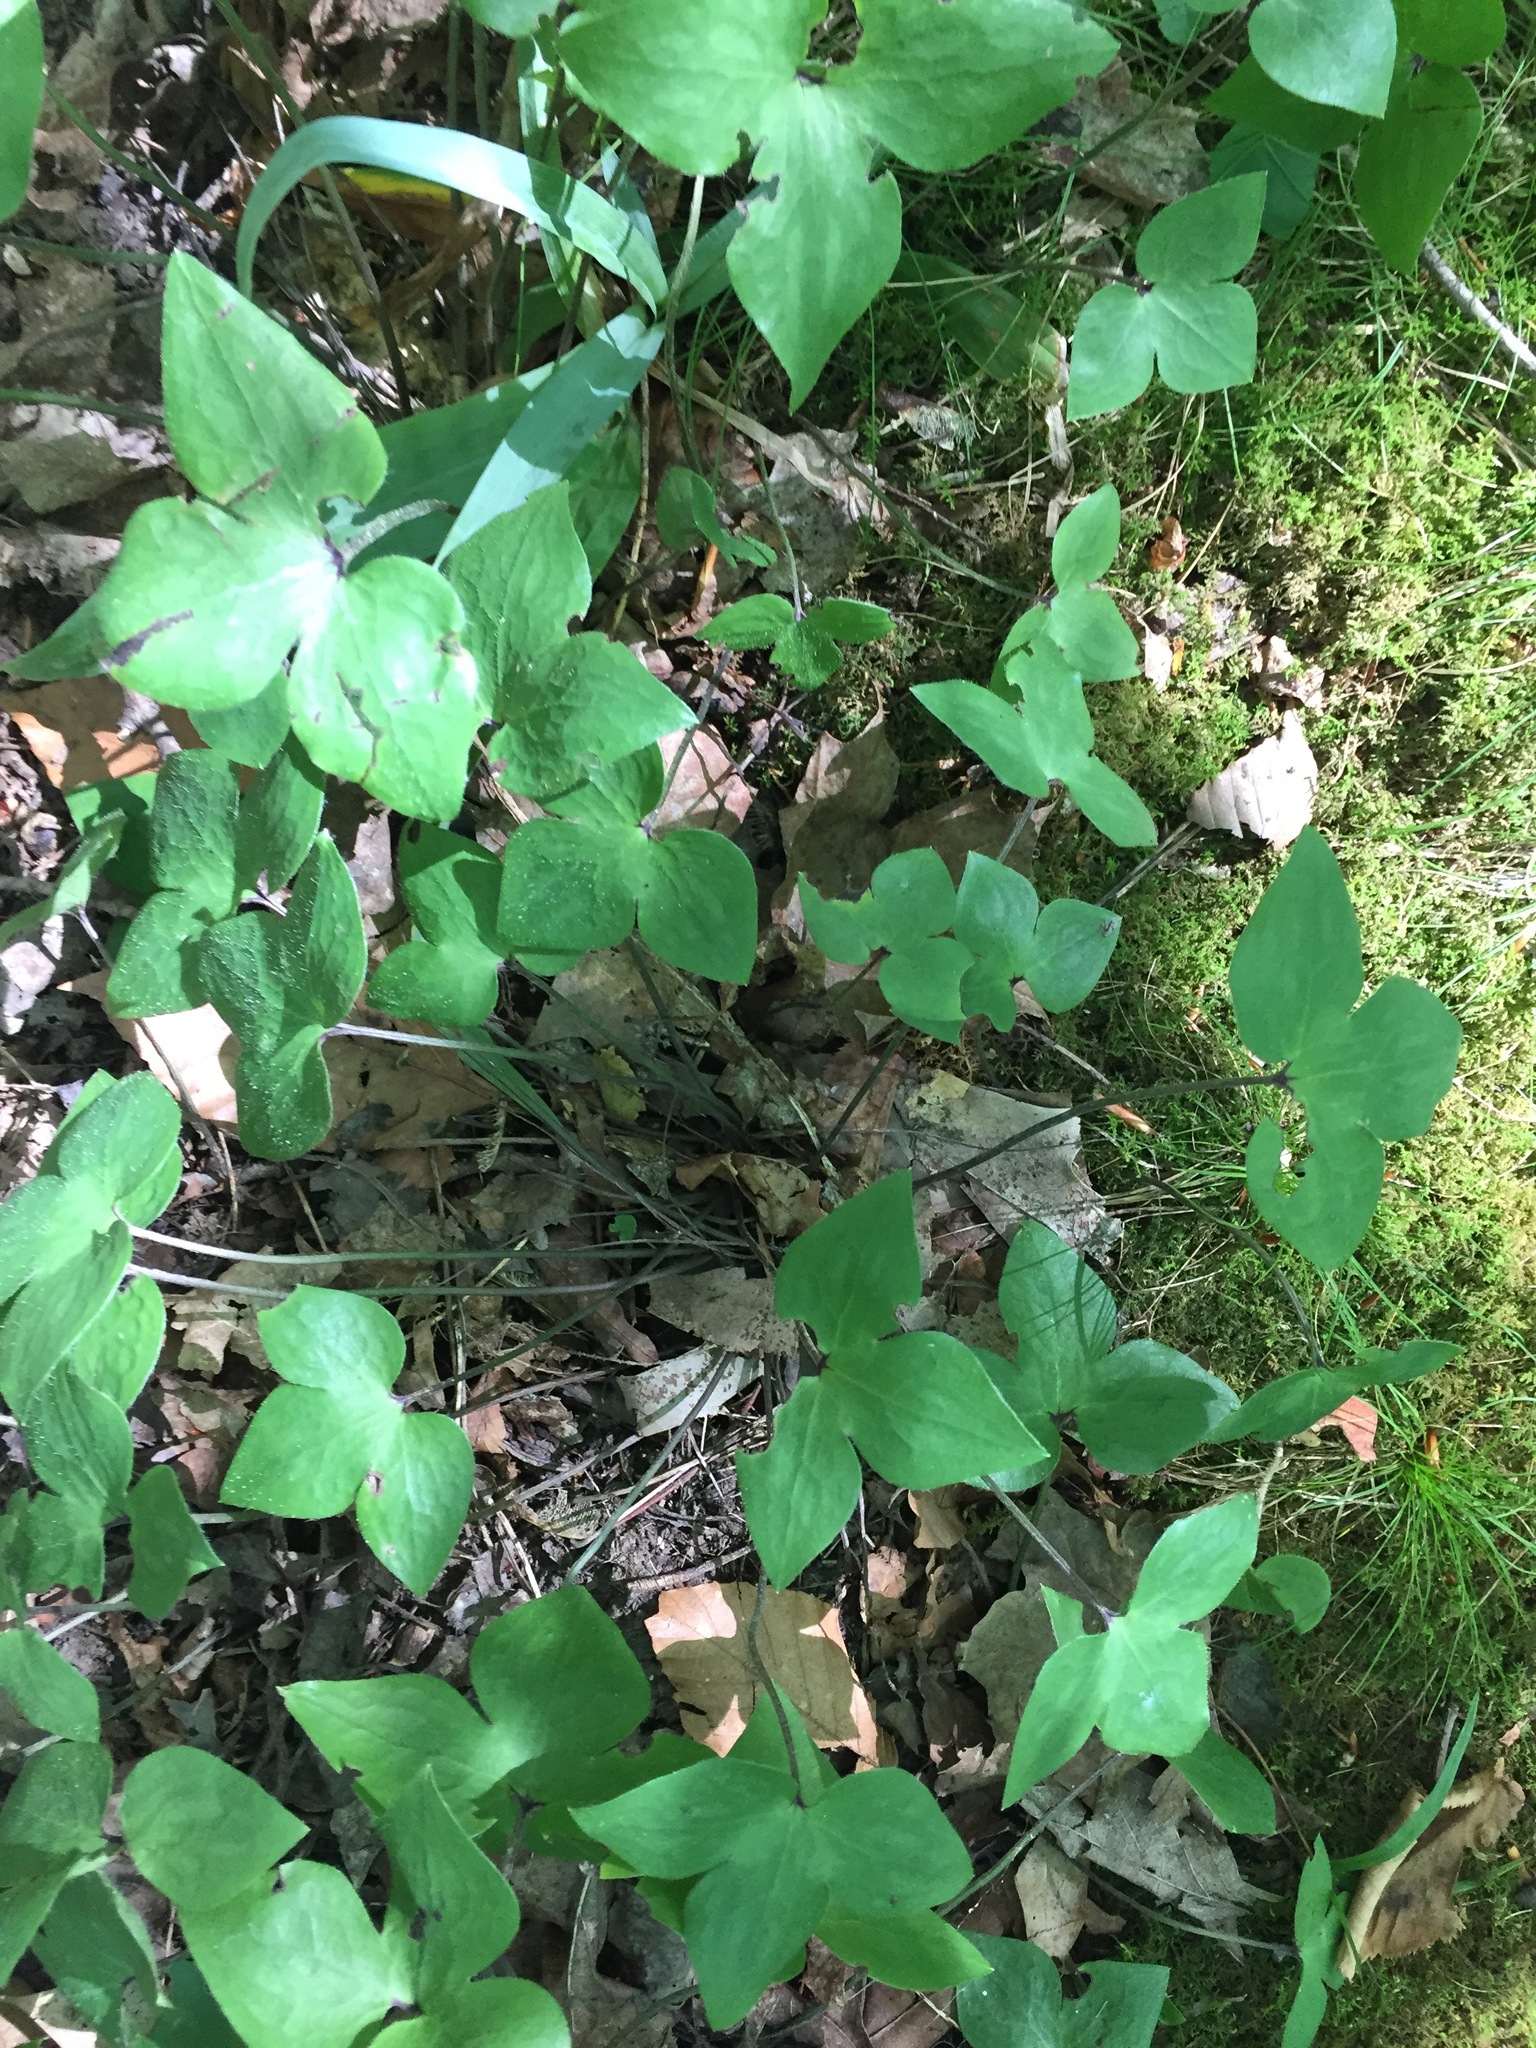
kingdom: Plantae
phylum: Tracheophyta
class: Magnoliopsida
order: Ranunculales
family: Ranunculaceae
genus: Hepatica
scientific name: Hepatica acutiloba
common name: Sharp-lobed hepatica
